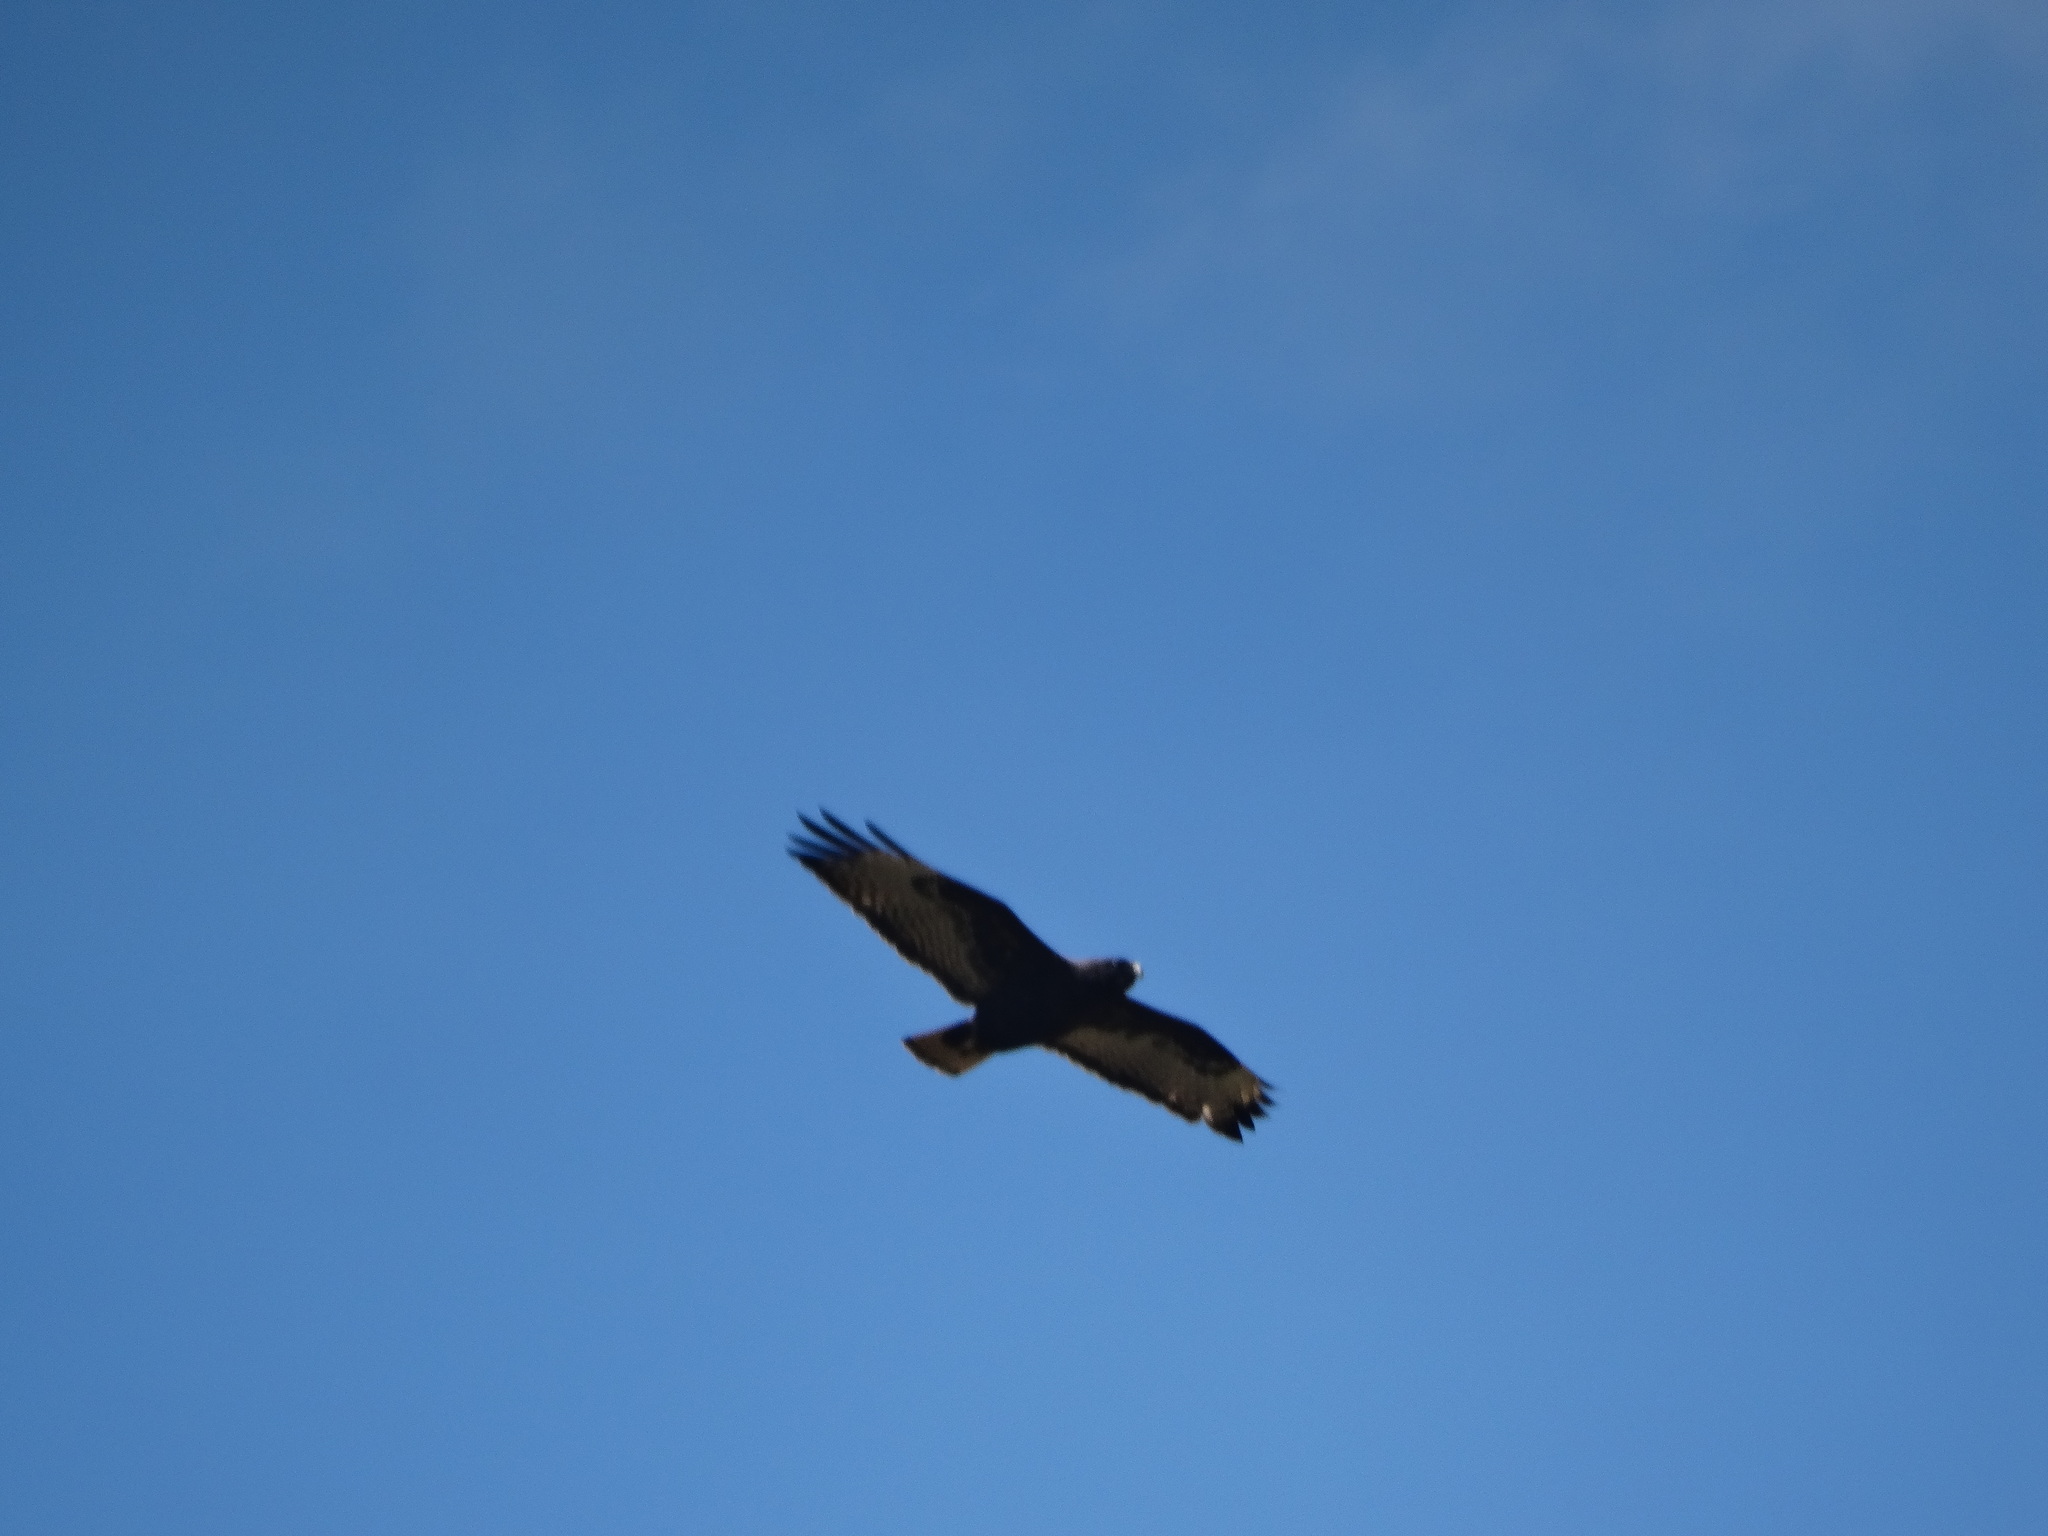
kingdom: Animalia
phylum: Chordata
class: Aves
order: Accipitriformes
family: Accipitridae
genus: Buteo
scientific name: Buteo albonotatus
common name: Zone-tailed hawk
